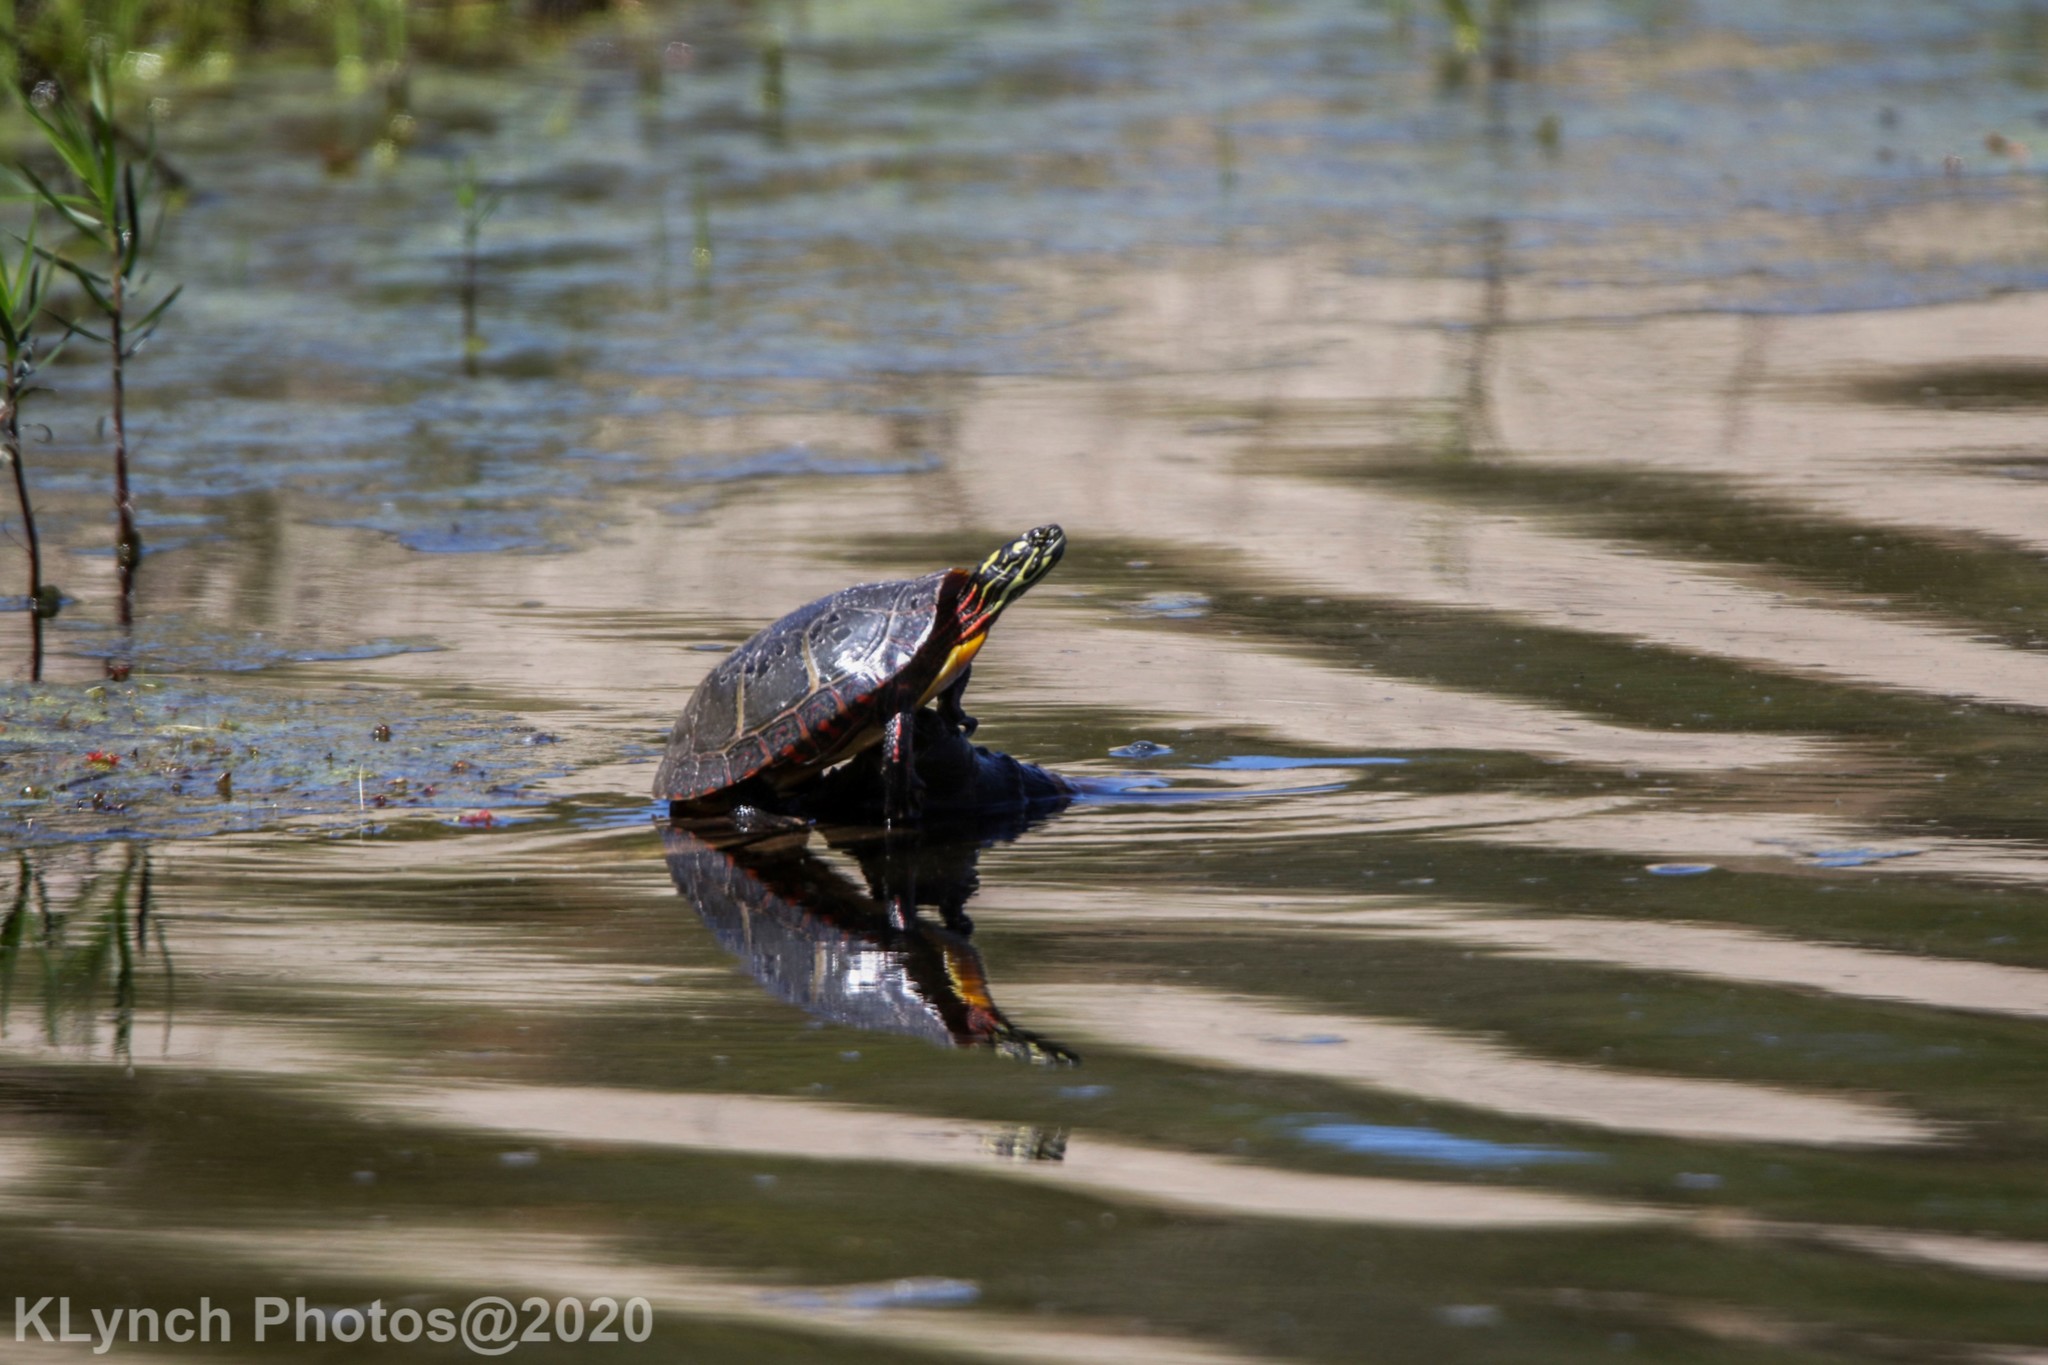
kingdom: Animalia
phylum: Chordata
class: Testudines
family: Emydidae
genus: Chrysemys
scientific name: Chrysemys picta
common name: Painted turtle
